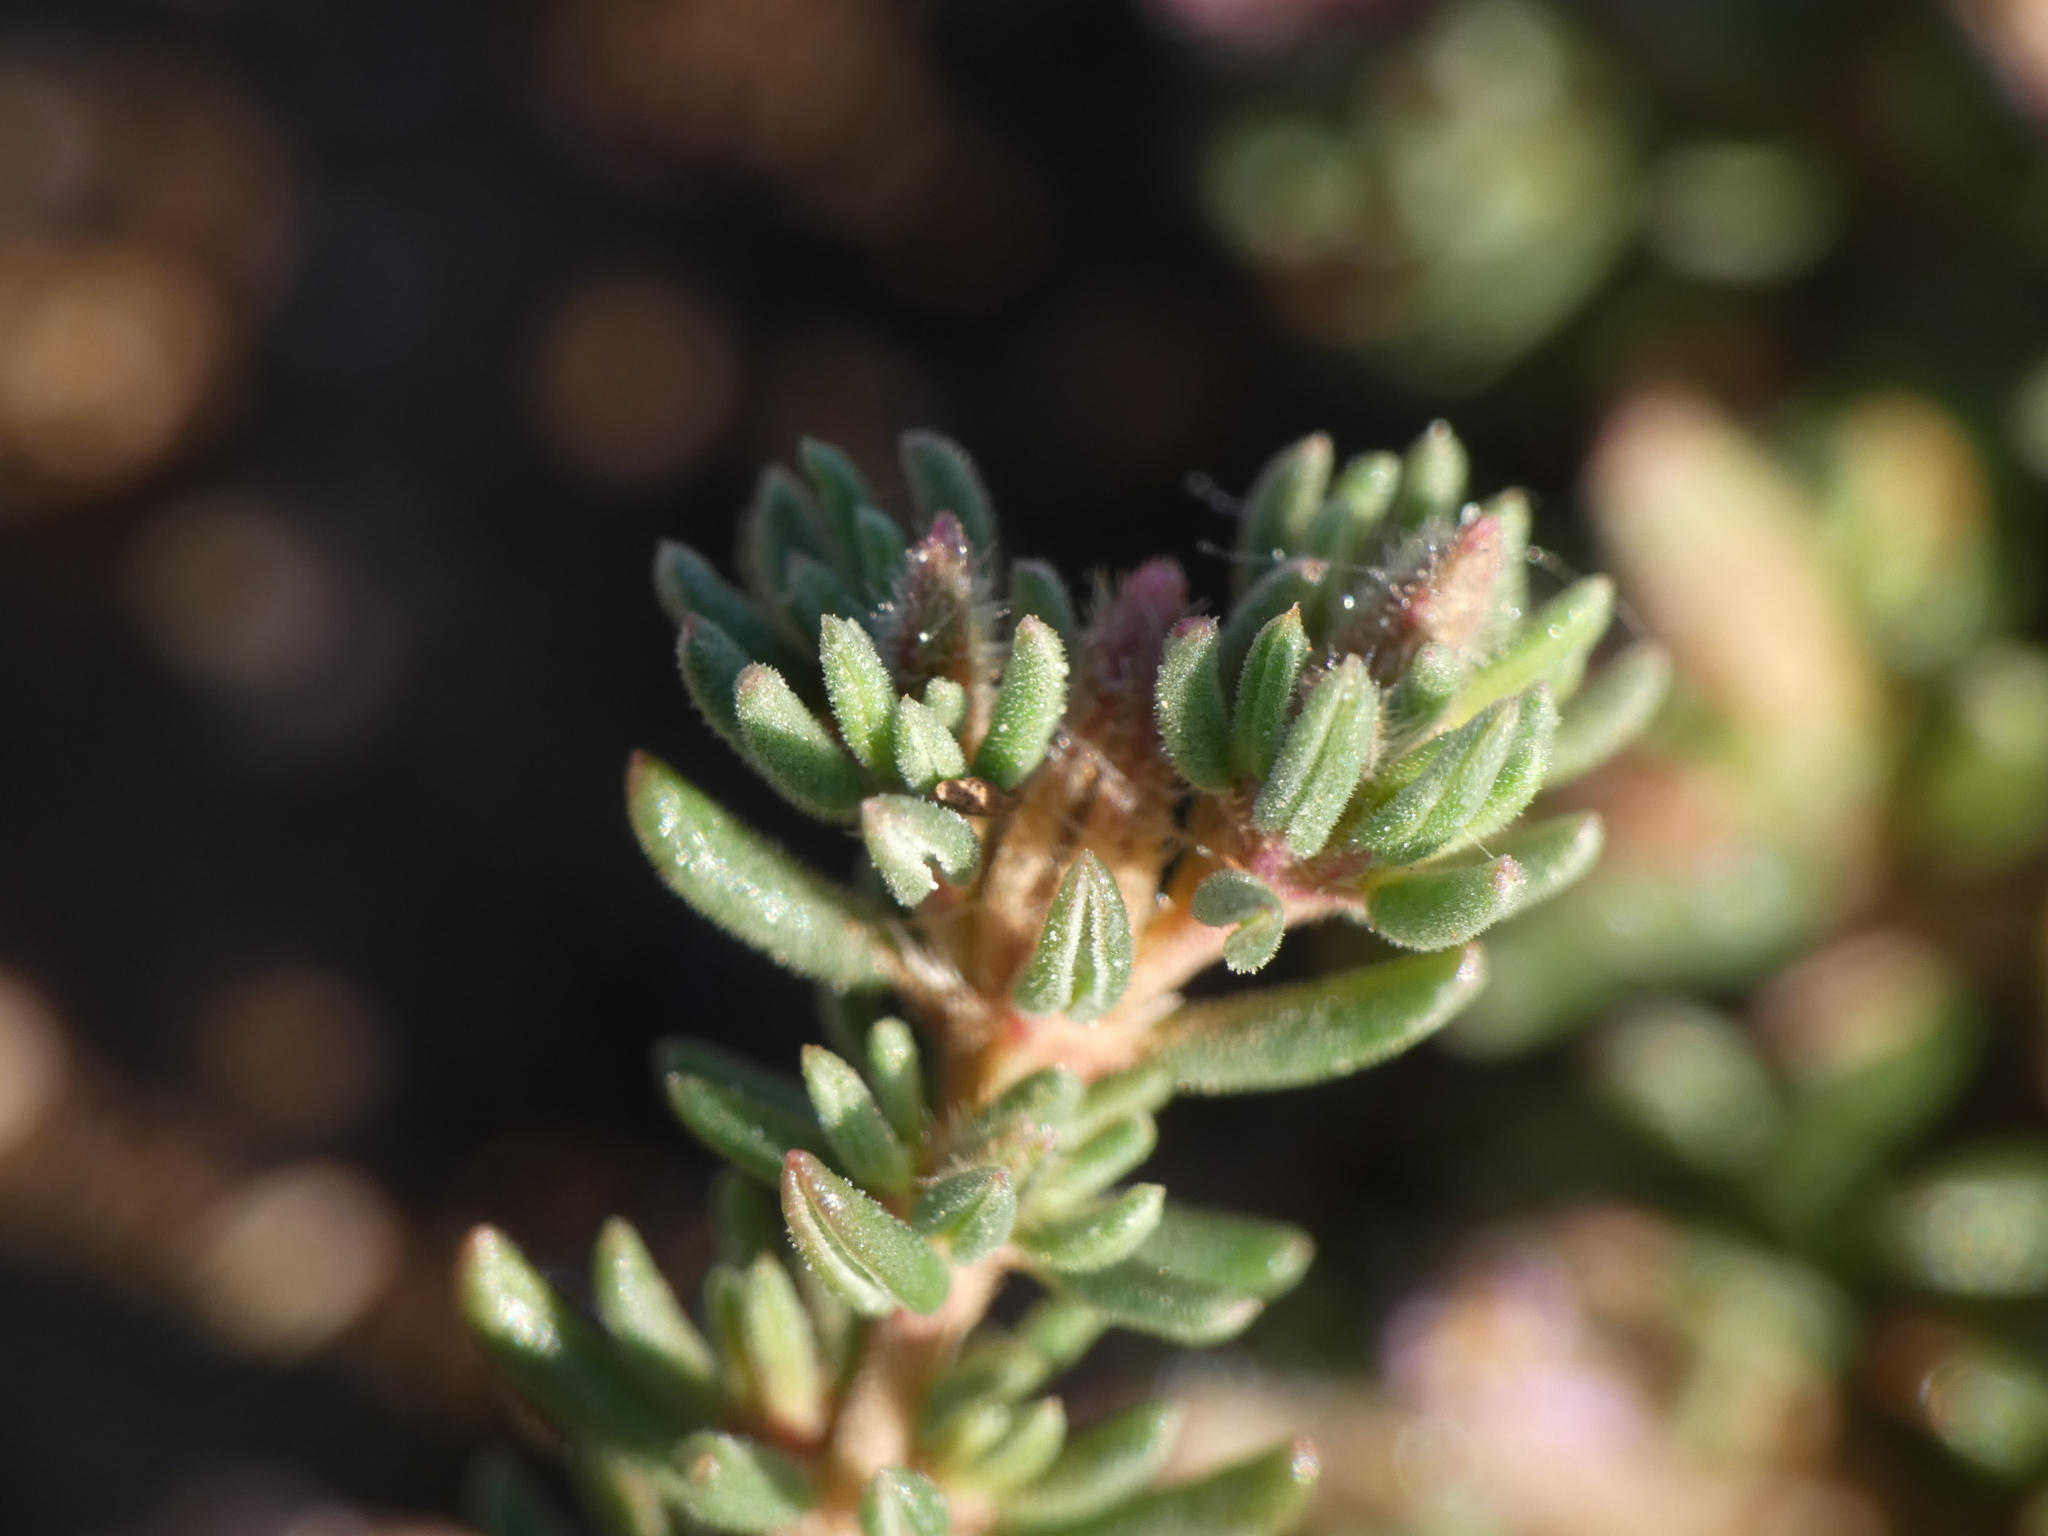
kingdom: Plantae
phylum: Tracheophyta
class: Magnoliopsida
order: Caryophyllales
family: Frankeniaceae
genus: Frankenia
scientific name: Frankenia hirsuta
